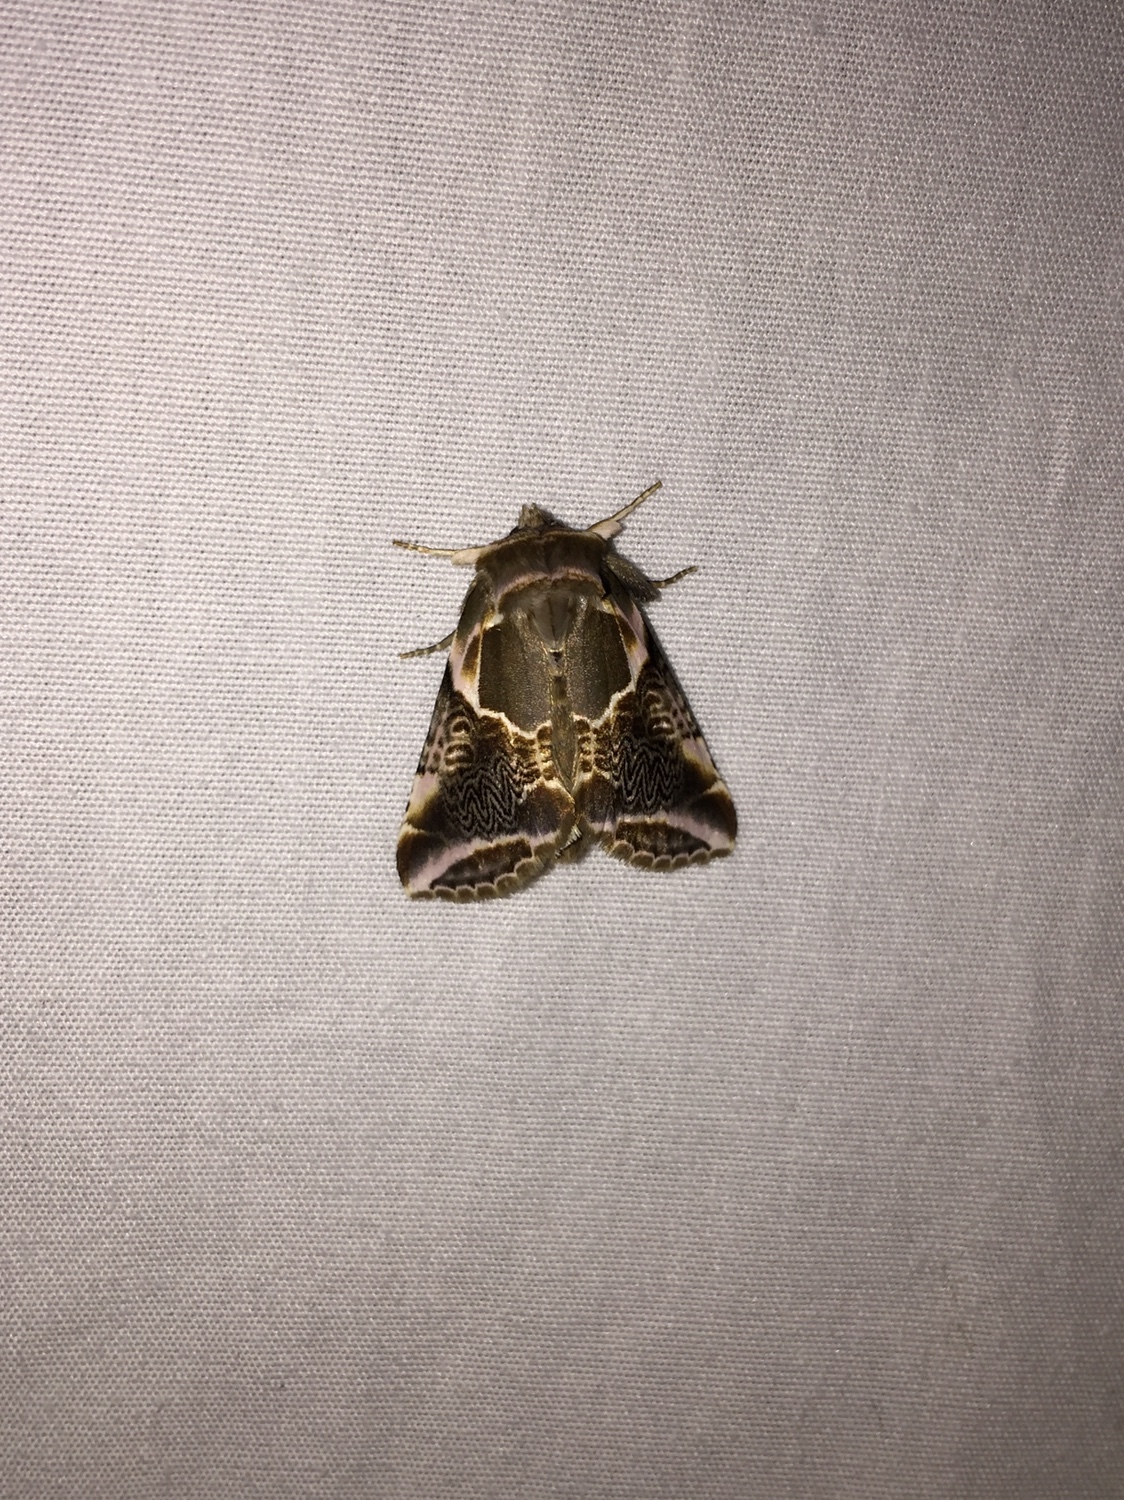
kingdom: Animalia
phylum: Arthropoda
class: Insecta
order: Lepidoptera
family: Drepanidae
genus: Habrosyne
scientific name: Habrosyne scripta
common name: Lettered habrosyne moth
